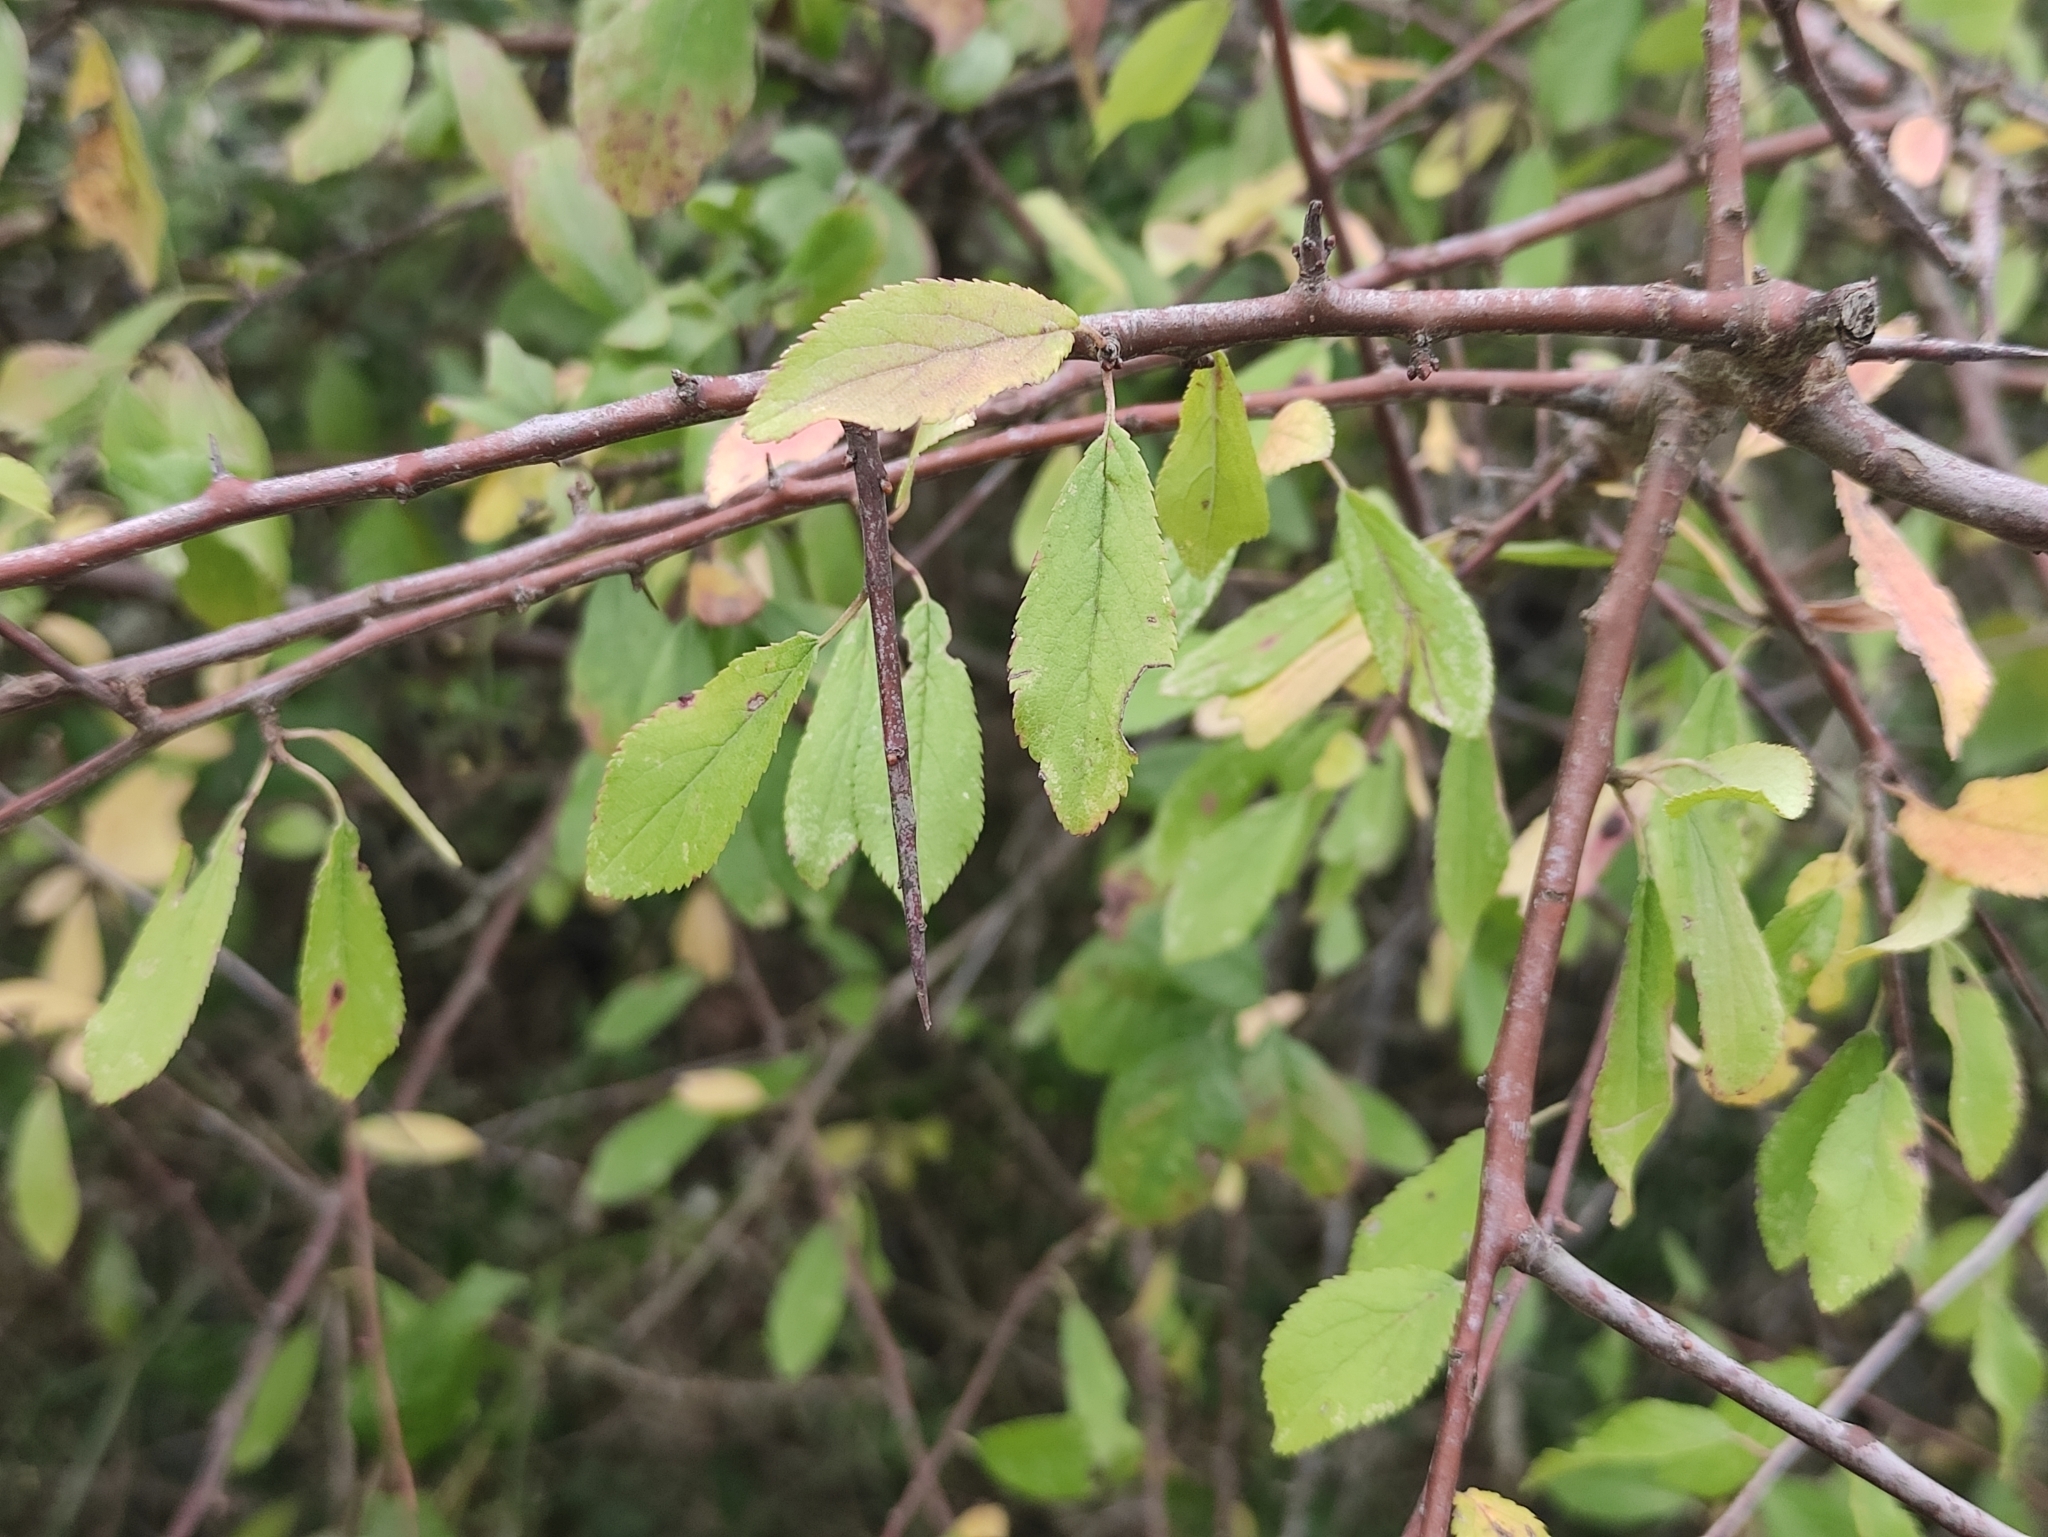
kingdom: Plantae
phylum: Tracheophyta
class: Magnoliopsida
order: Rosales
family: Rosaceae
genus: Prunus
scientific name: Prunus spinosa
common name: Blackthorn
